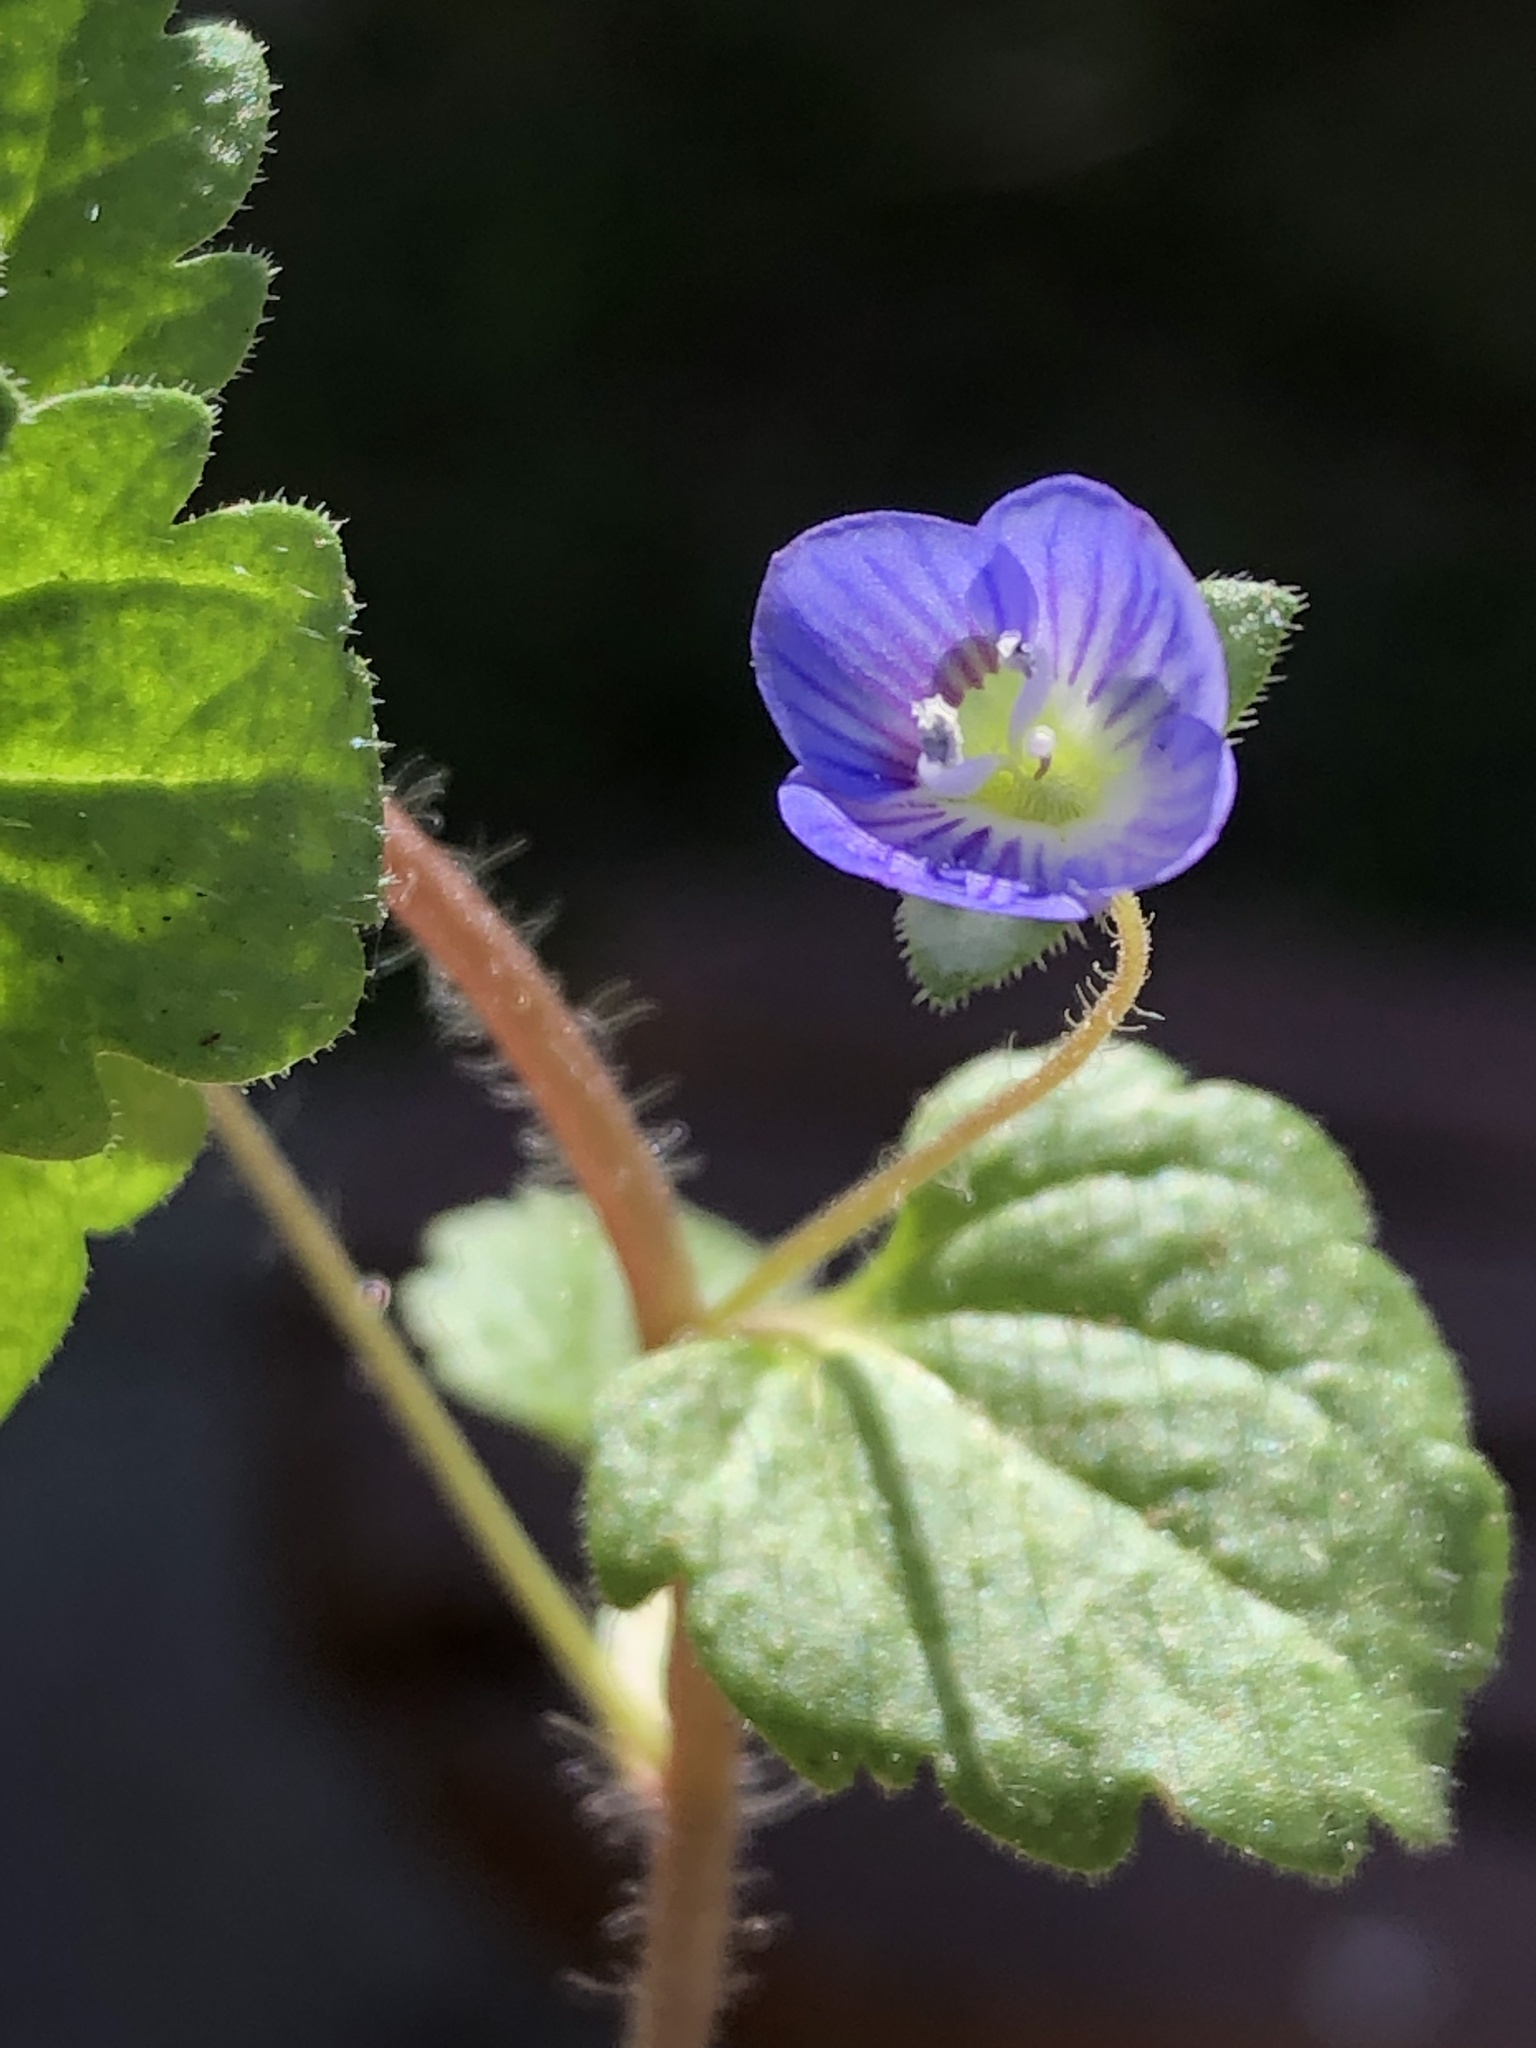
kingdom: Plantae
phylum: Tracheophyta
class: Magnoliopsida
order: Lamiales
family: Plantaginaceae
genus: Veronica
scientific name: Veronica persica
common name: Common field-speedwell
